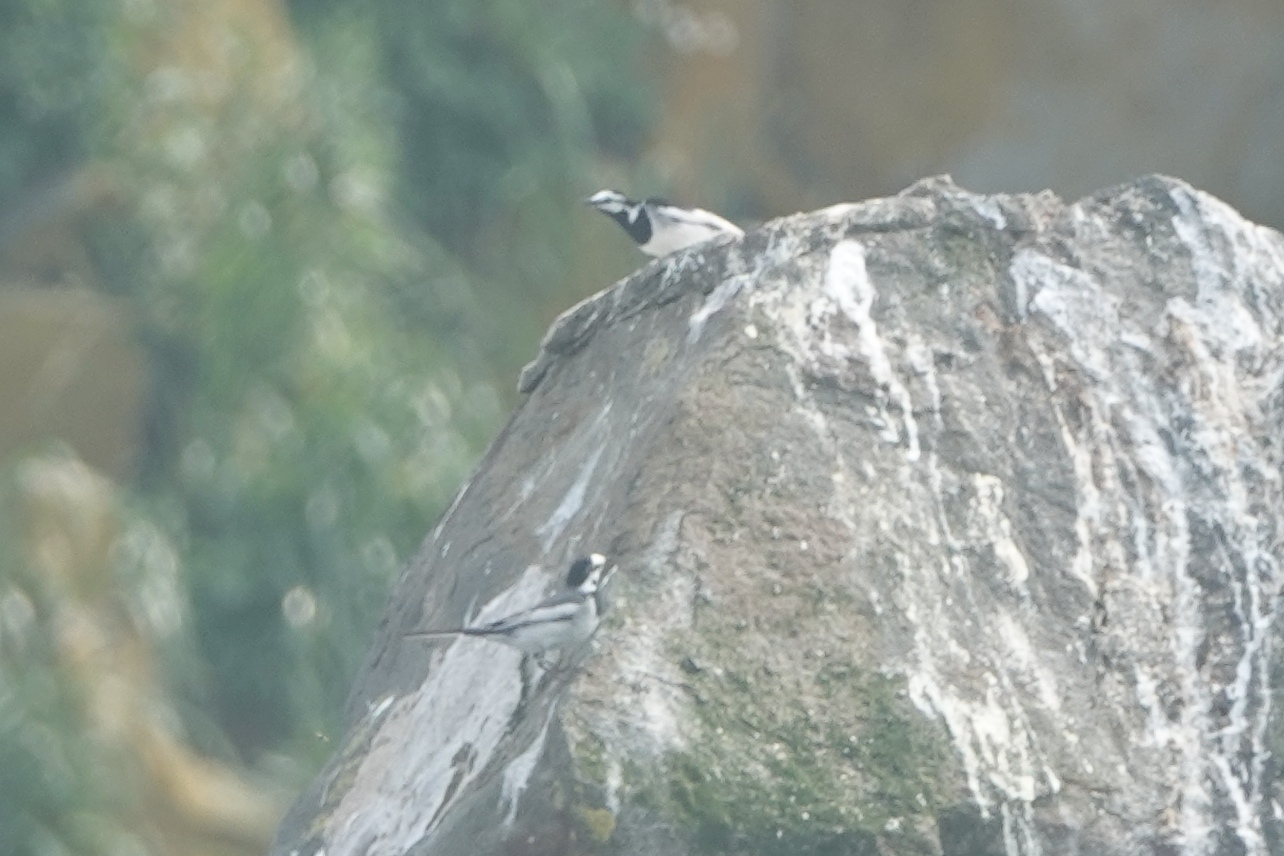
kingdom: Animalia
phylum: Chordata
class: Aves
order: Passeriformes
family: Motacillidae
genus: Motacilla
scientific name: Motacilla alba
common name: White wagtail
